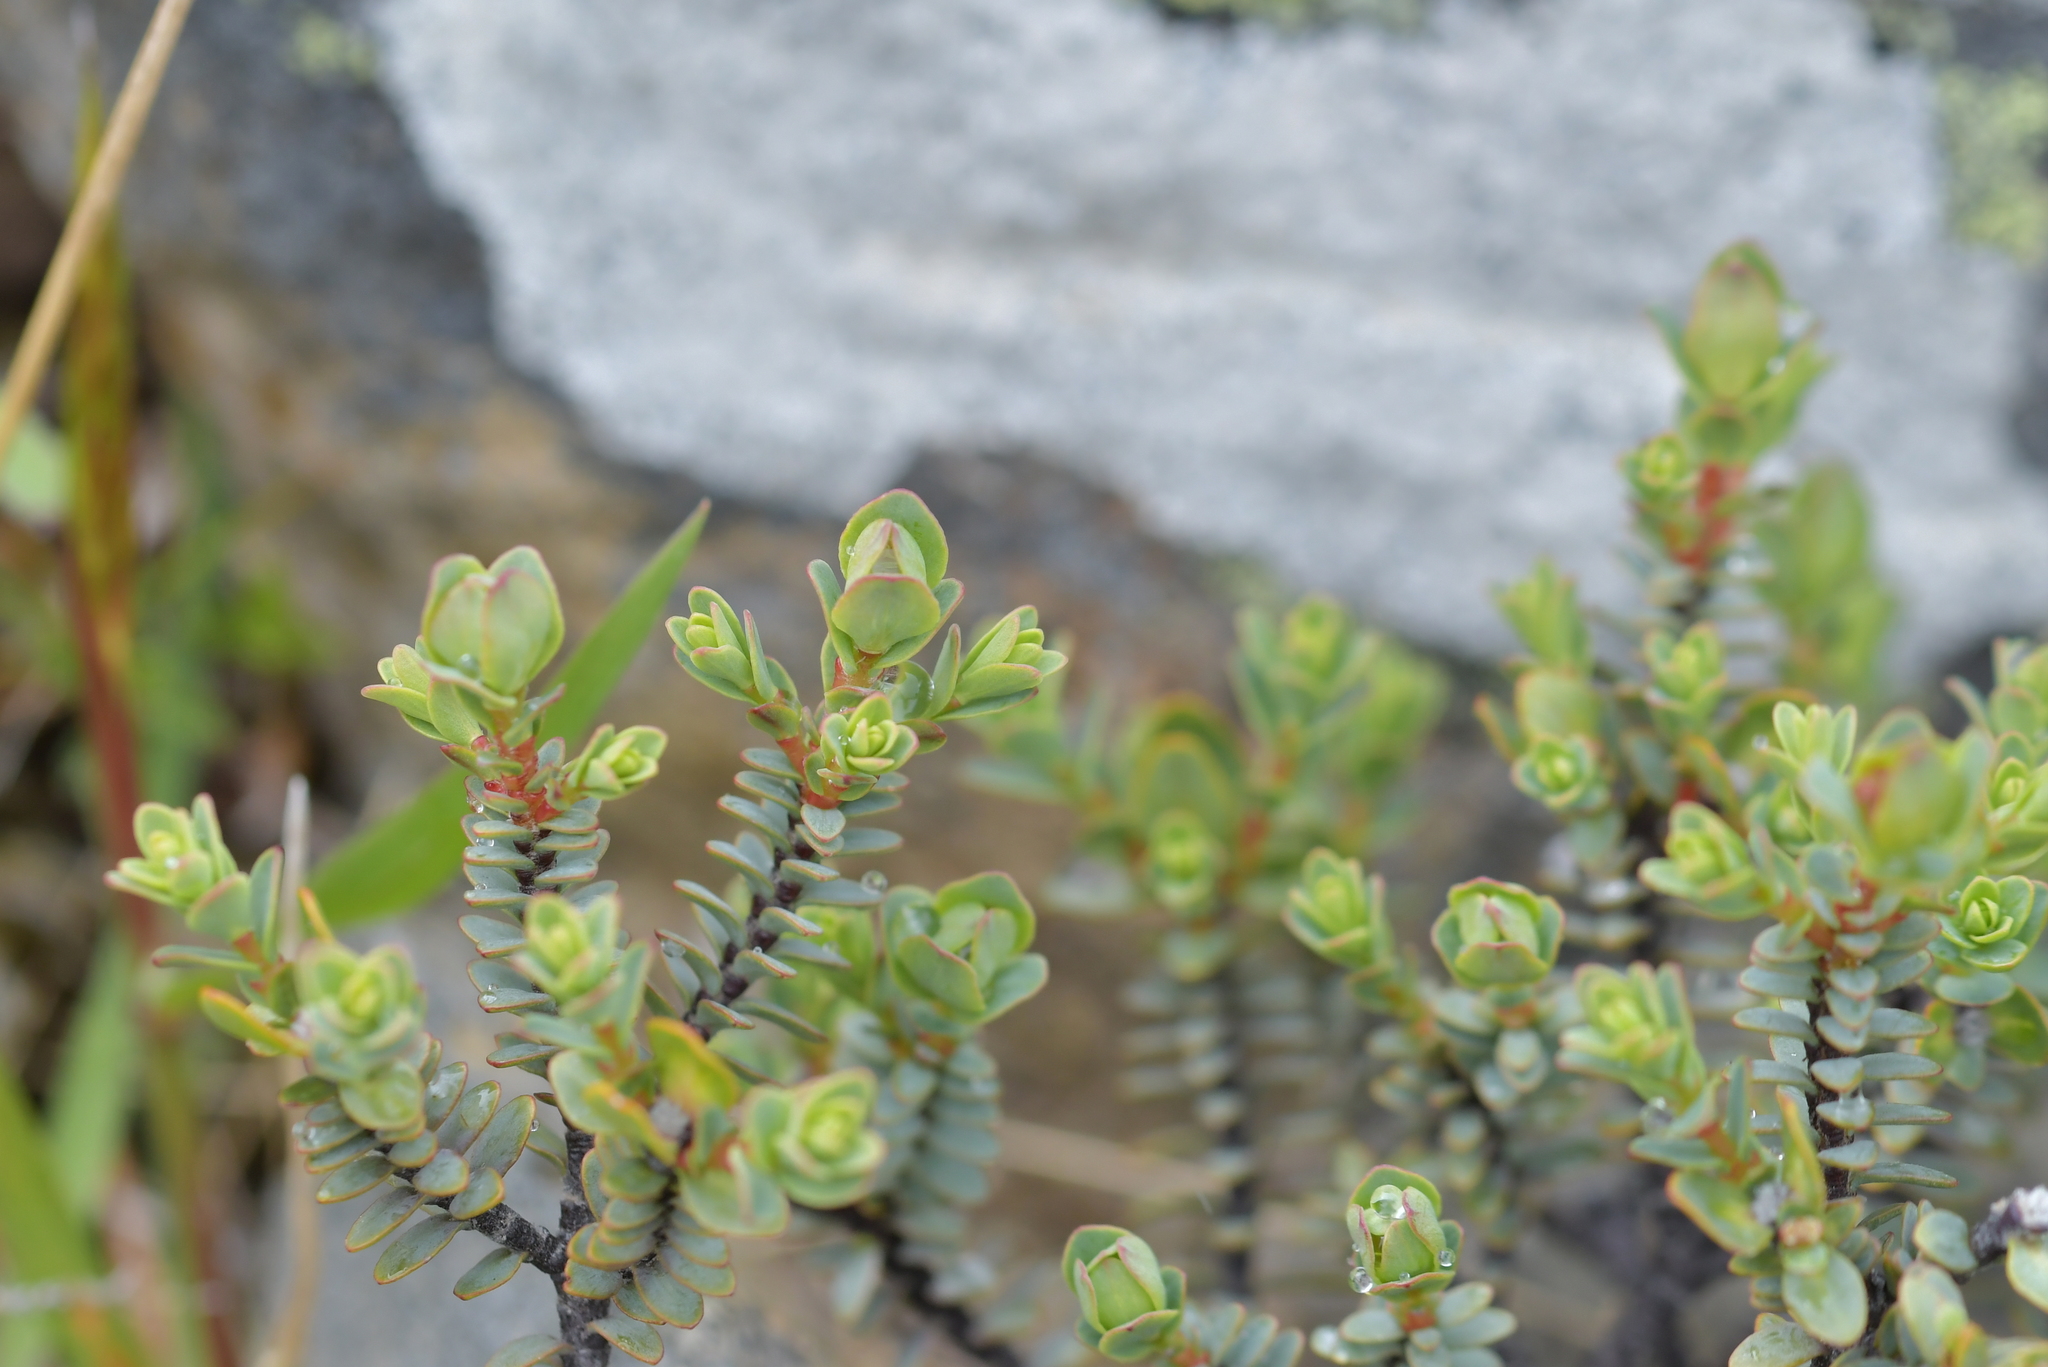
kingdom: Plantae
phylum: Tracheophyta
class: Magnoliopsida
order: Malvales
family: Thymelaeaceae
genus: Pimelea
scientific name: Pimelea traversii
